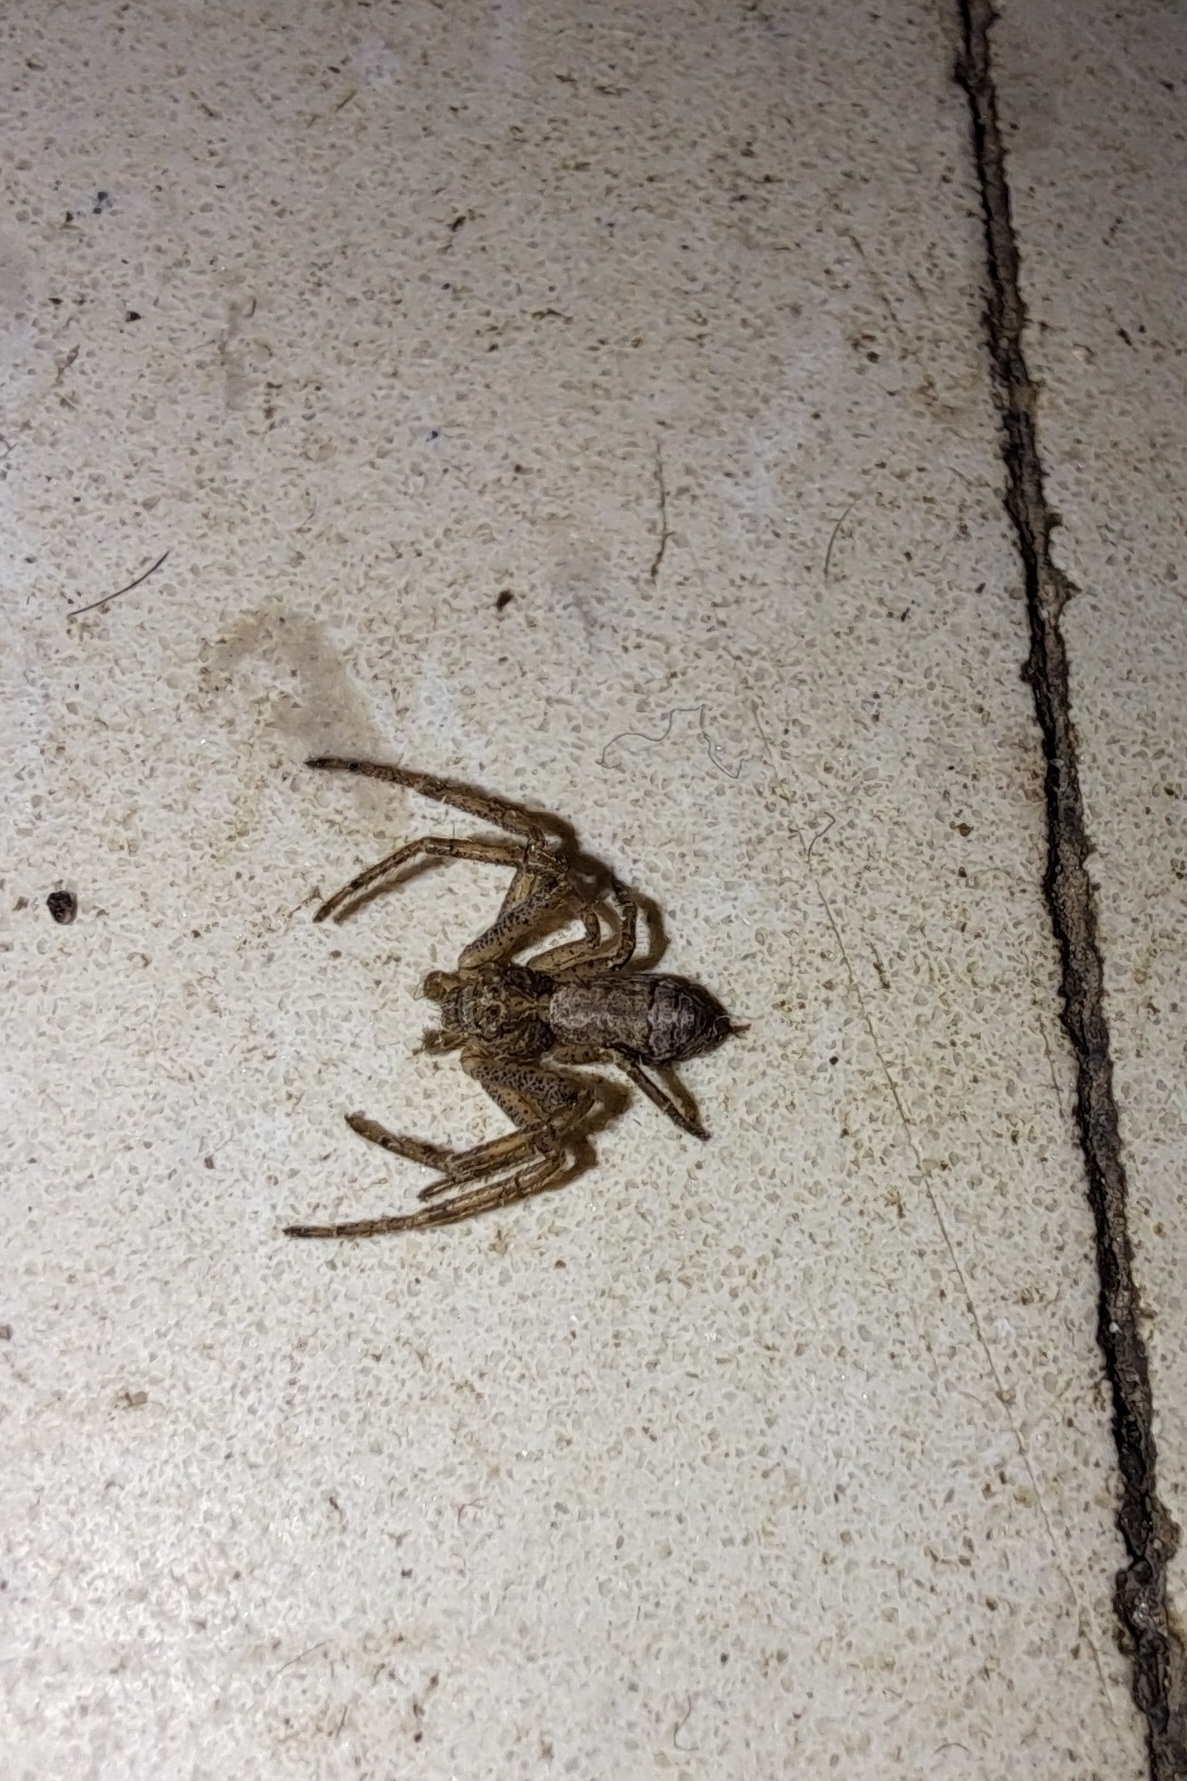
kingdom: Animalia
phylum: Arthropoda
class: Arachnida
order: Araneae
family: Thomisidae
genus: Tmarus
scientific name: Tmarus angulatus
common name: Tuberculated crab spider
